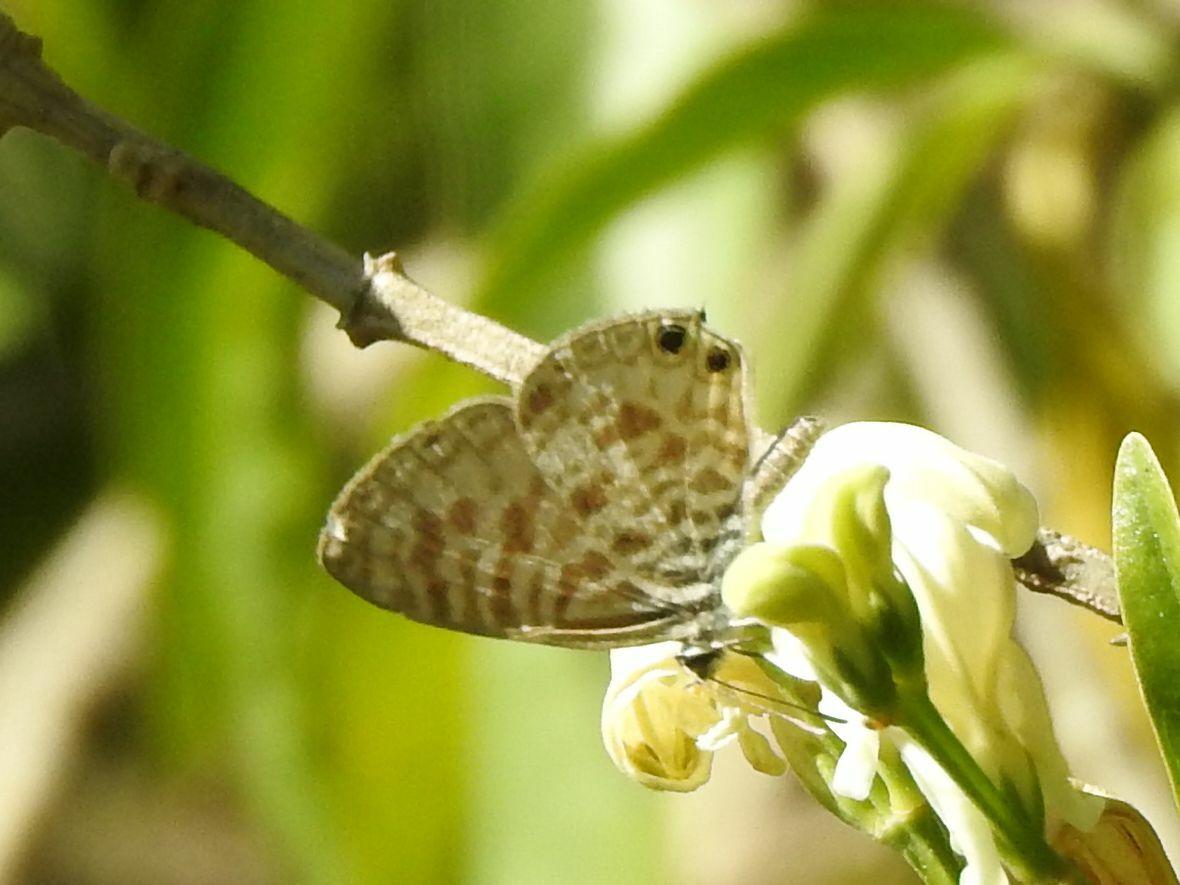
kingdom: Animalia
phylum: Arthropoda
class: Insecta
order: Lepidoptera
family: Lycaenidae
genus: Leptotes
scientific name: Leptotes
